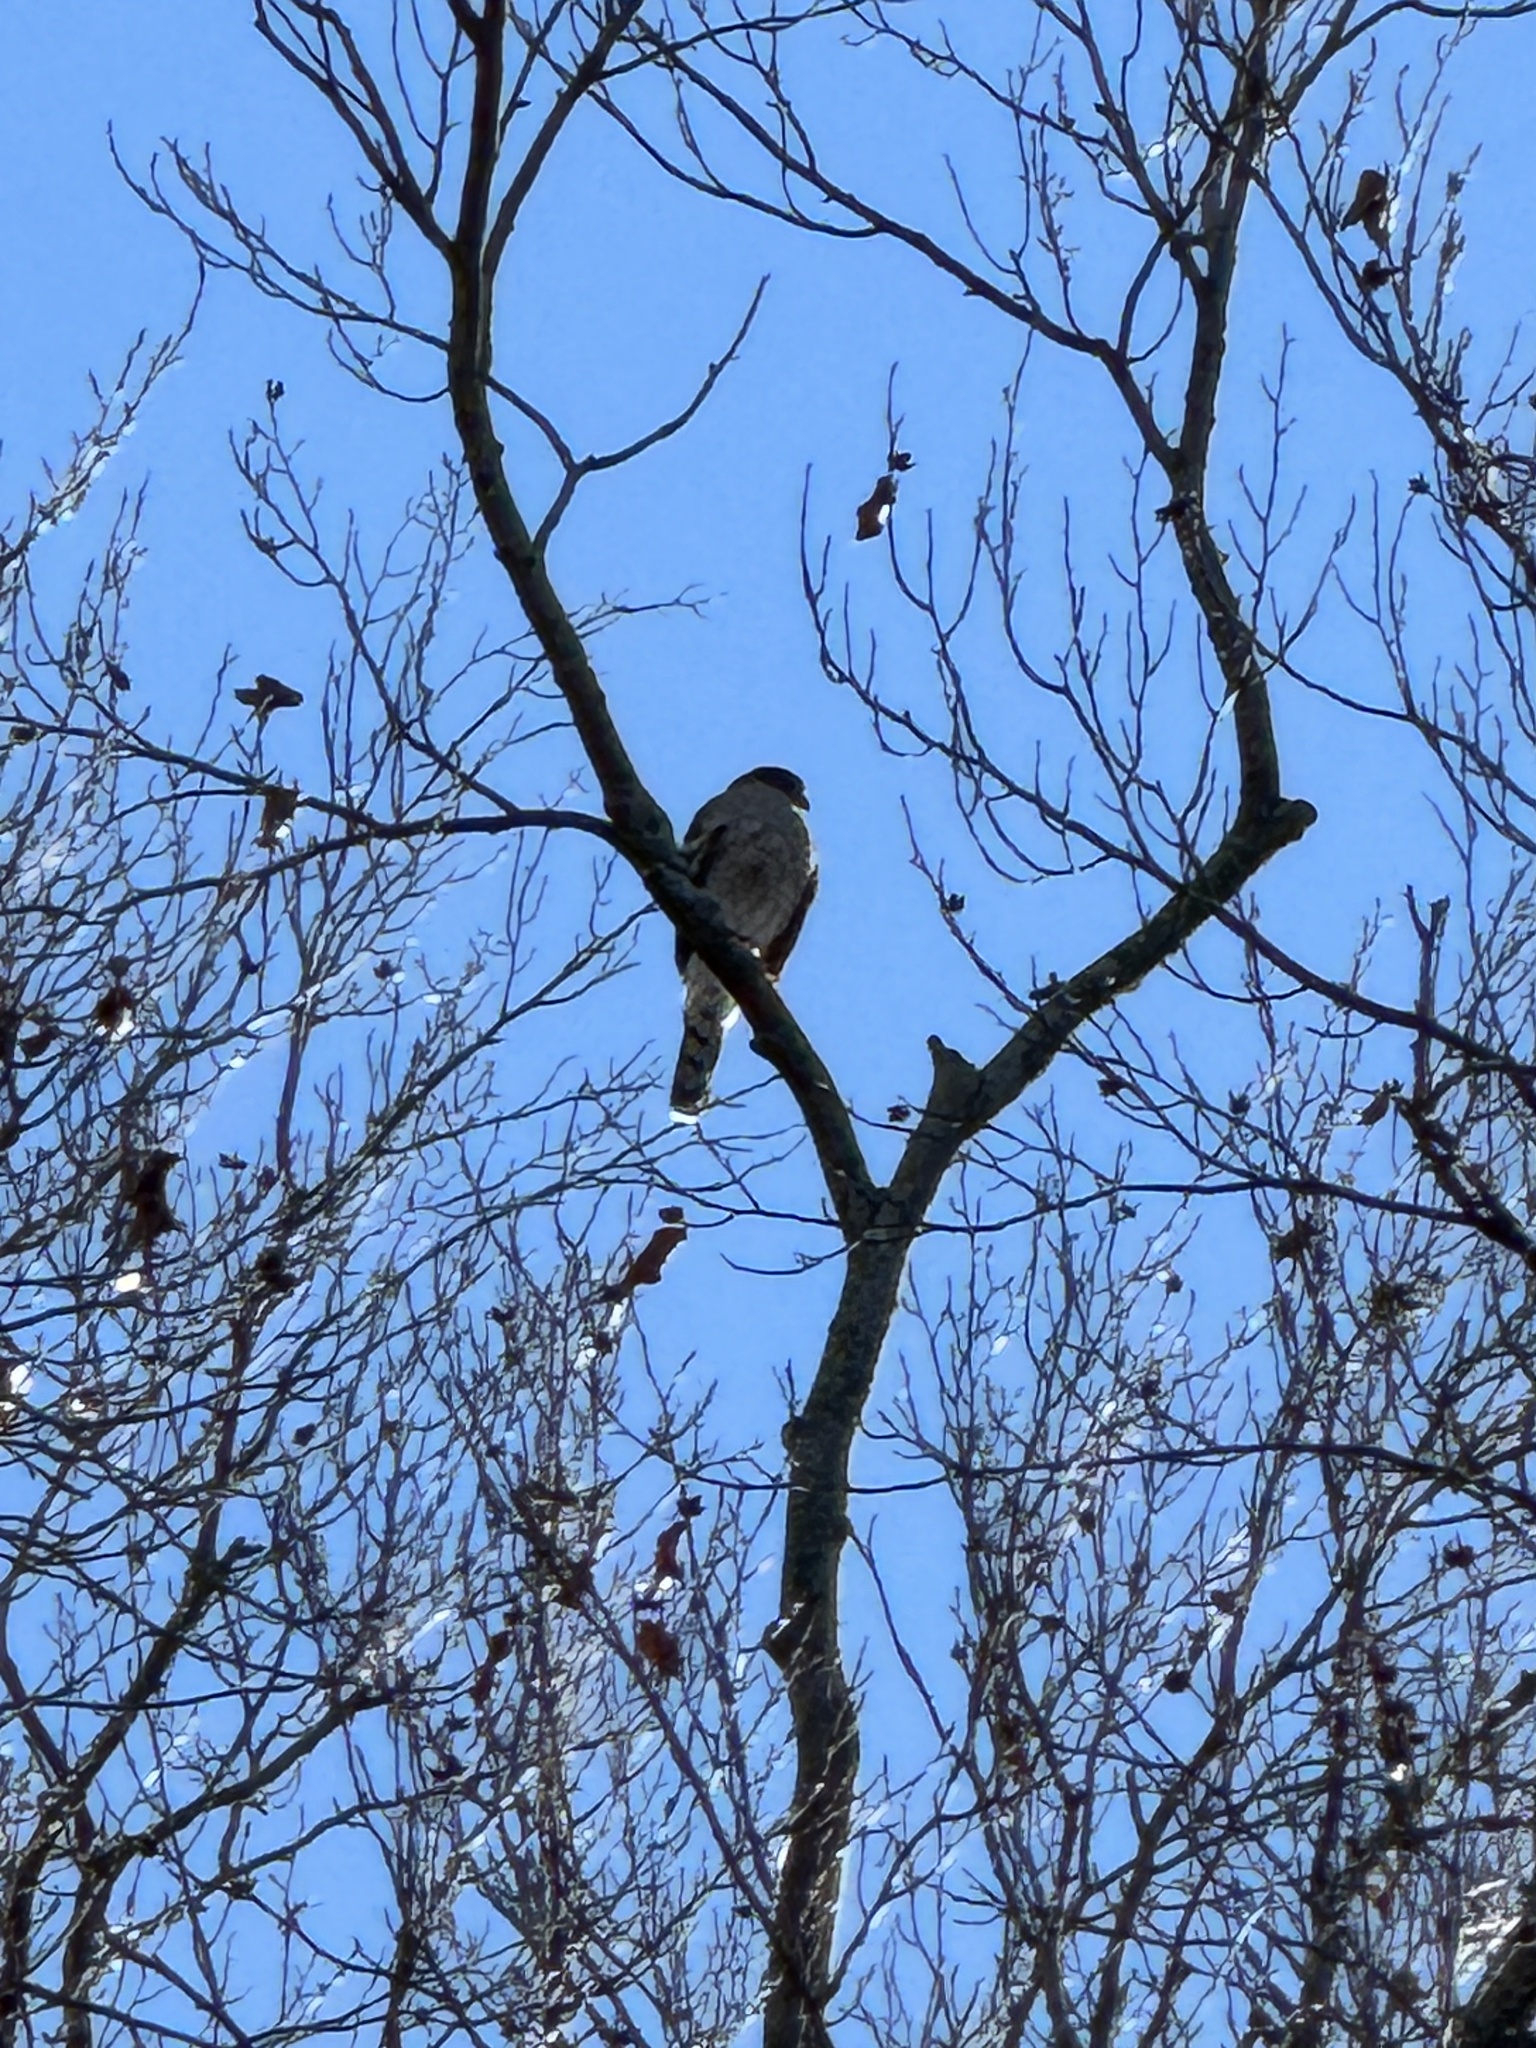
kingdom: Animalia
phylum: Chordata
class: Aves
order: Accipitriformes
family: Accipitridae
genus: Accipiter
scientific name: Accipiter cooperii
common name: Cooper's hawk
